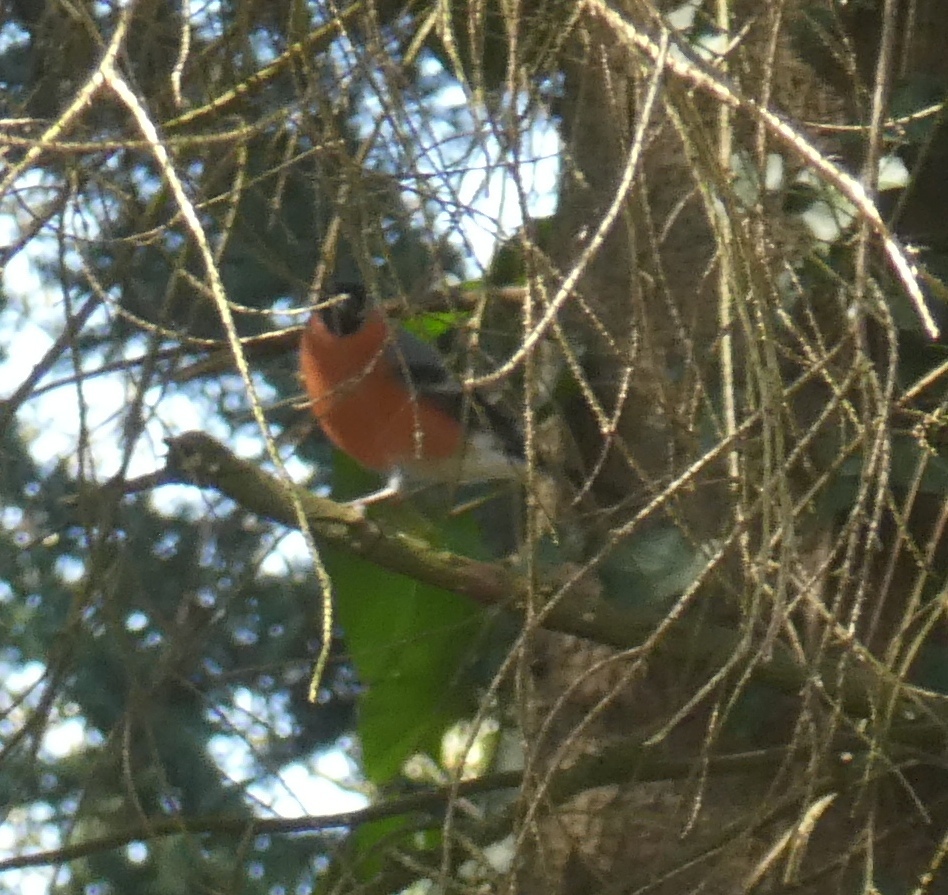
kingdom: Animalia
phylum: Chordata
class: Aves
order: Passeriformes
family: Fringillidae
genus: Pyrrhula
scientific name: Pyrrhula pyrrhula
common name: Eurasian bullfinch
